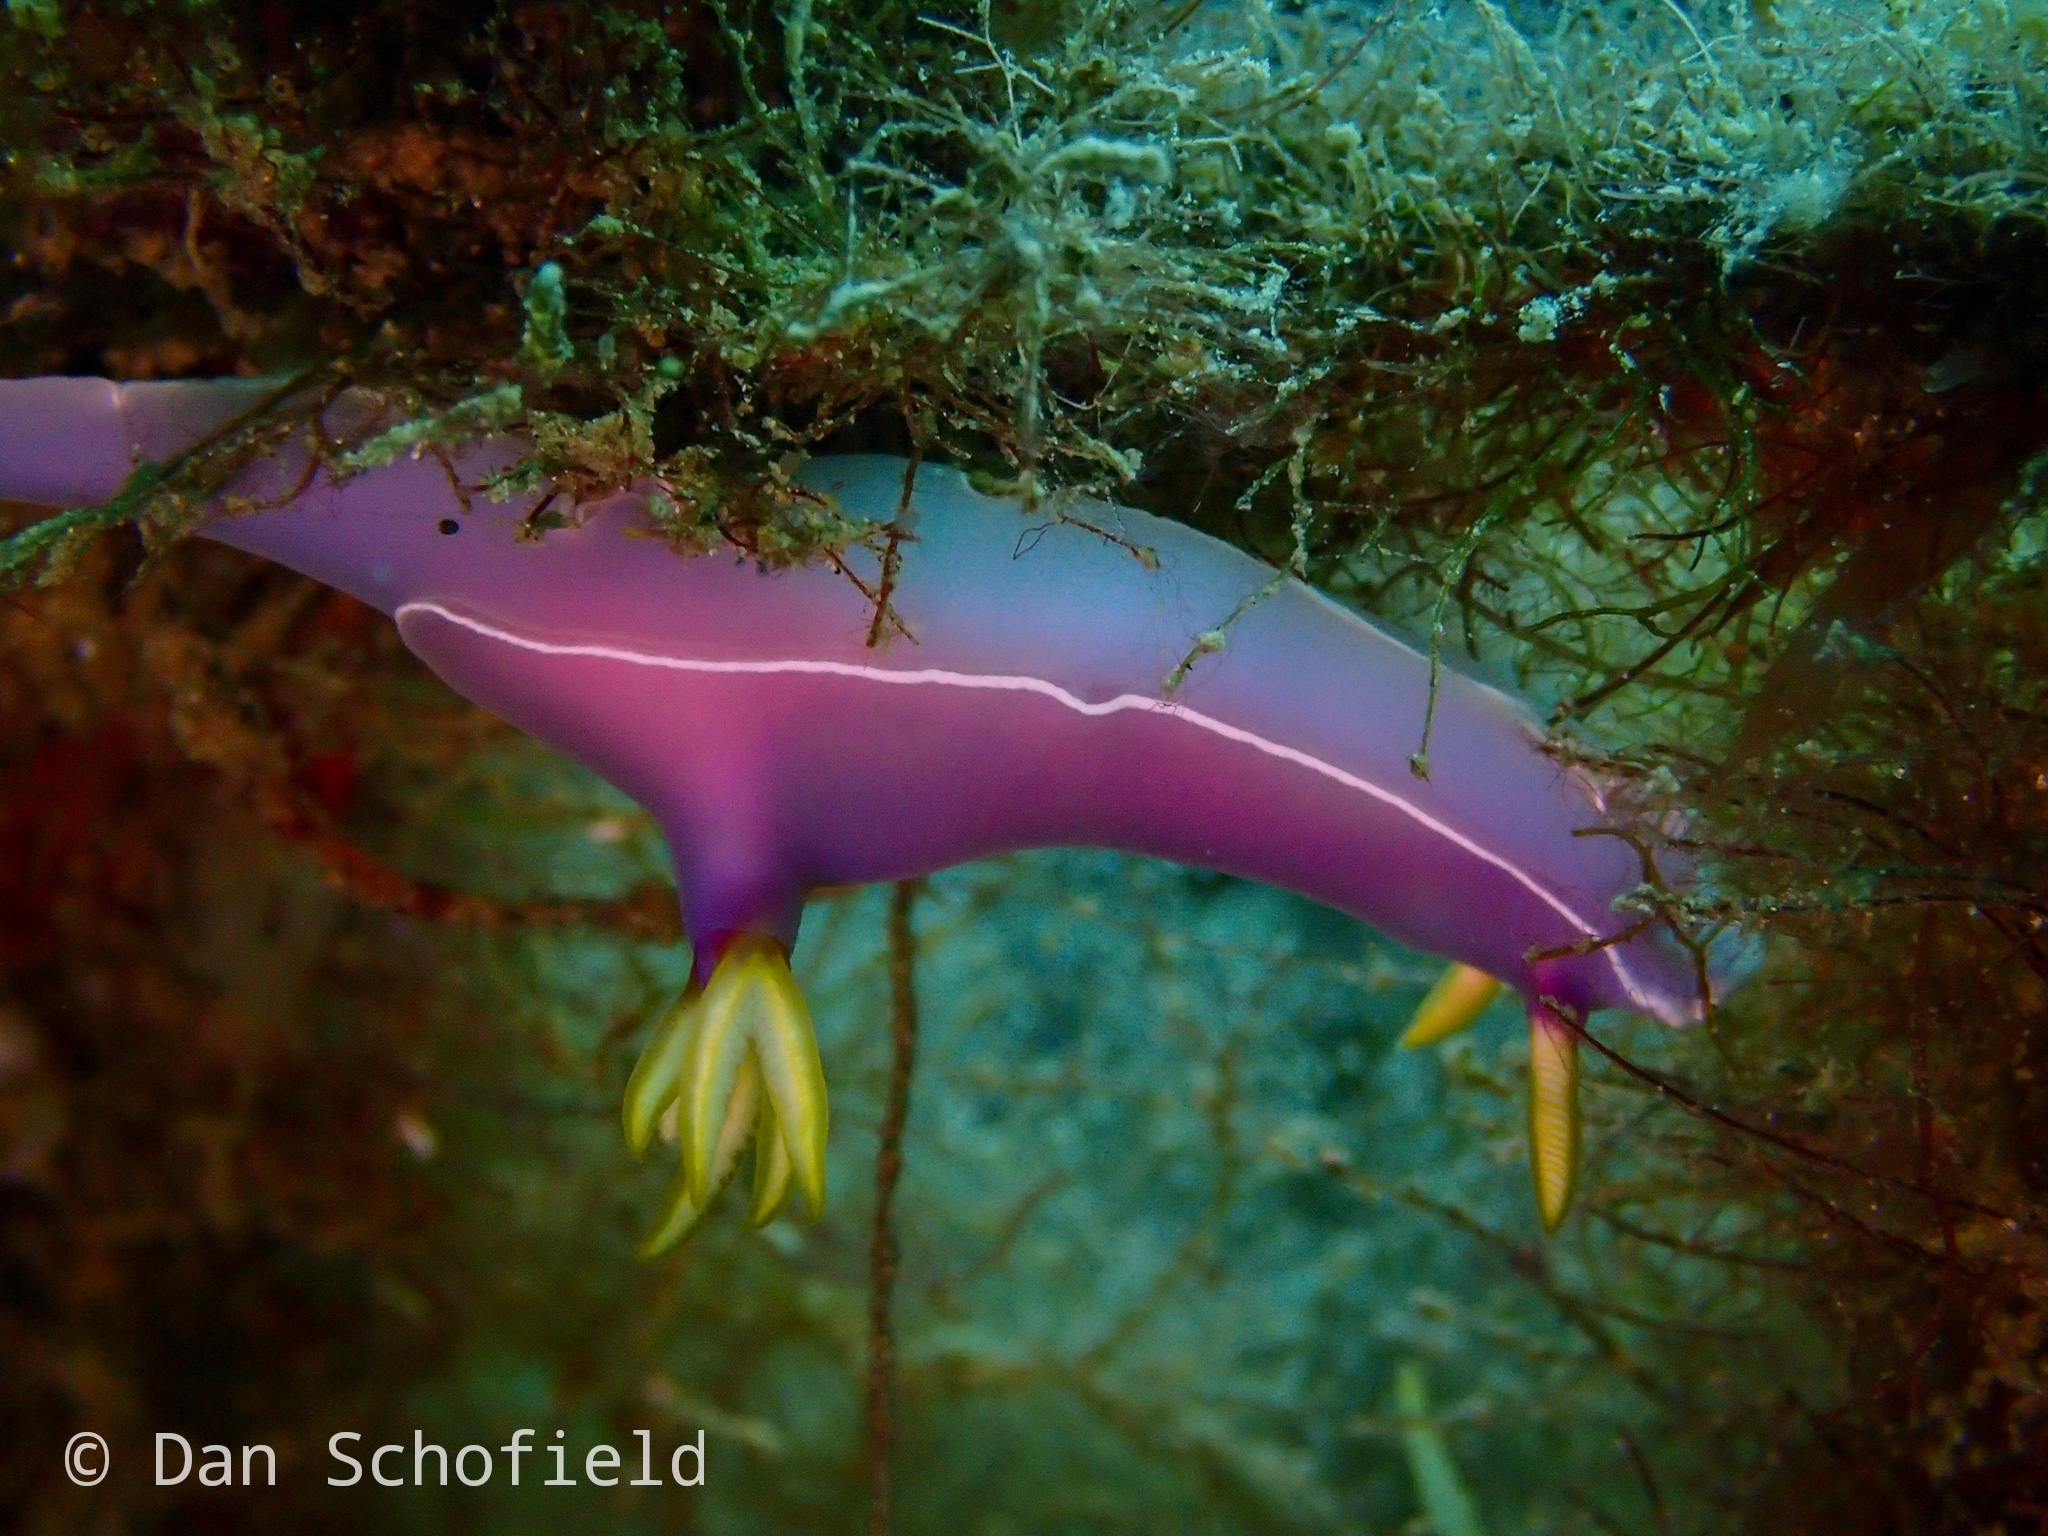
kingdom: Animalia
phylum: Mollusca
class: Gastropoda
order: Nudibranchia
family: Chromodorididae
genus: Hypselodoris
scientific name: Hypselodoris bullockii
